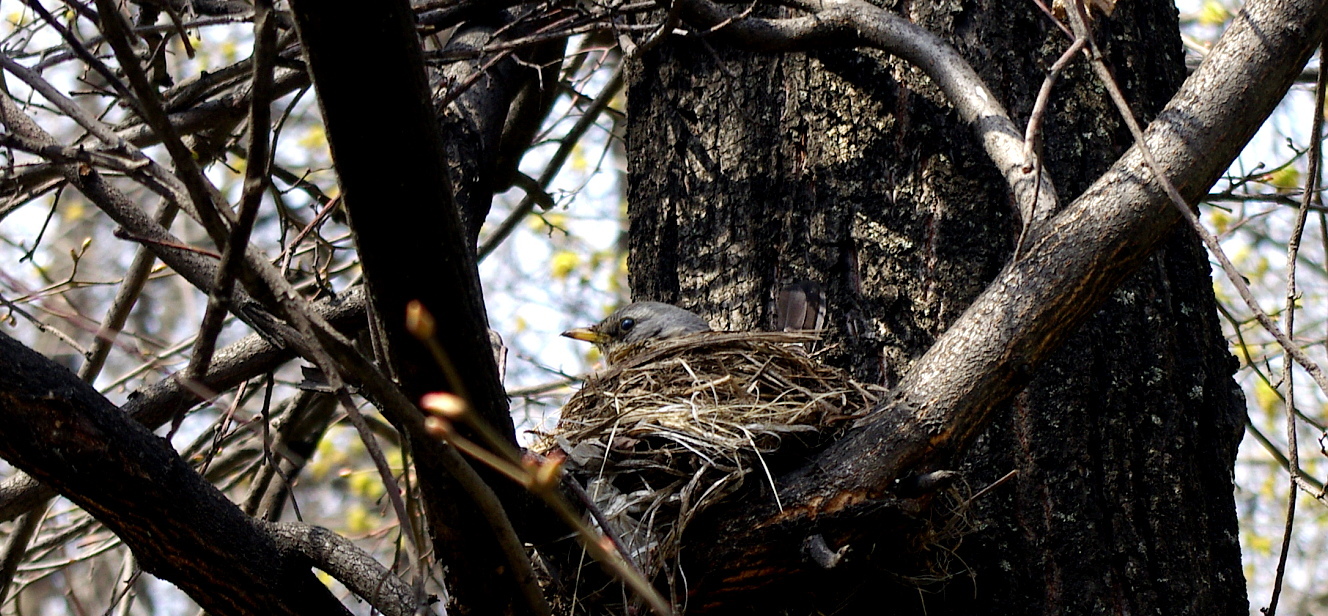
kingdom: Animalia
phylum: Chordata
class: Aves
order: Passeriformes
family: Turdidae
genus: Turdus
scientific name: Turdus pilaris
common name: Fieldfare
